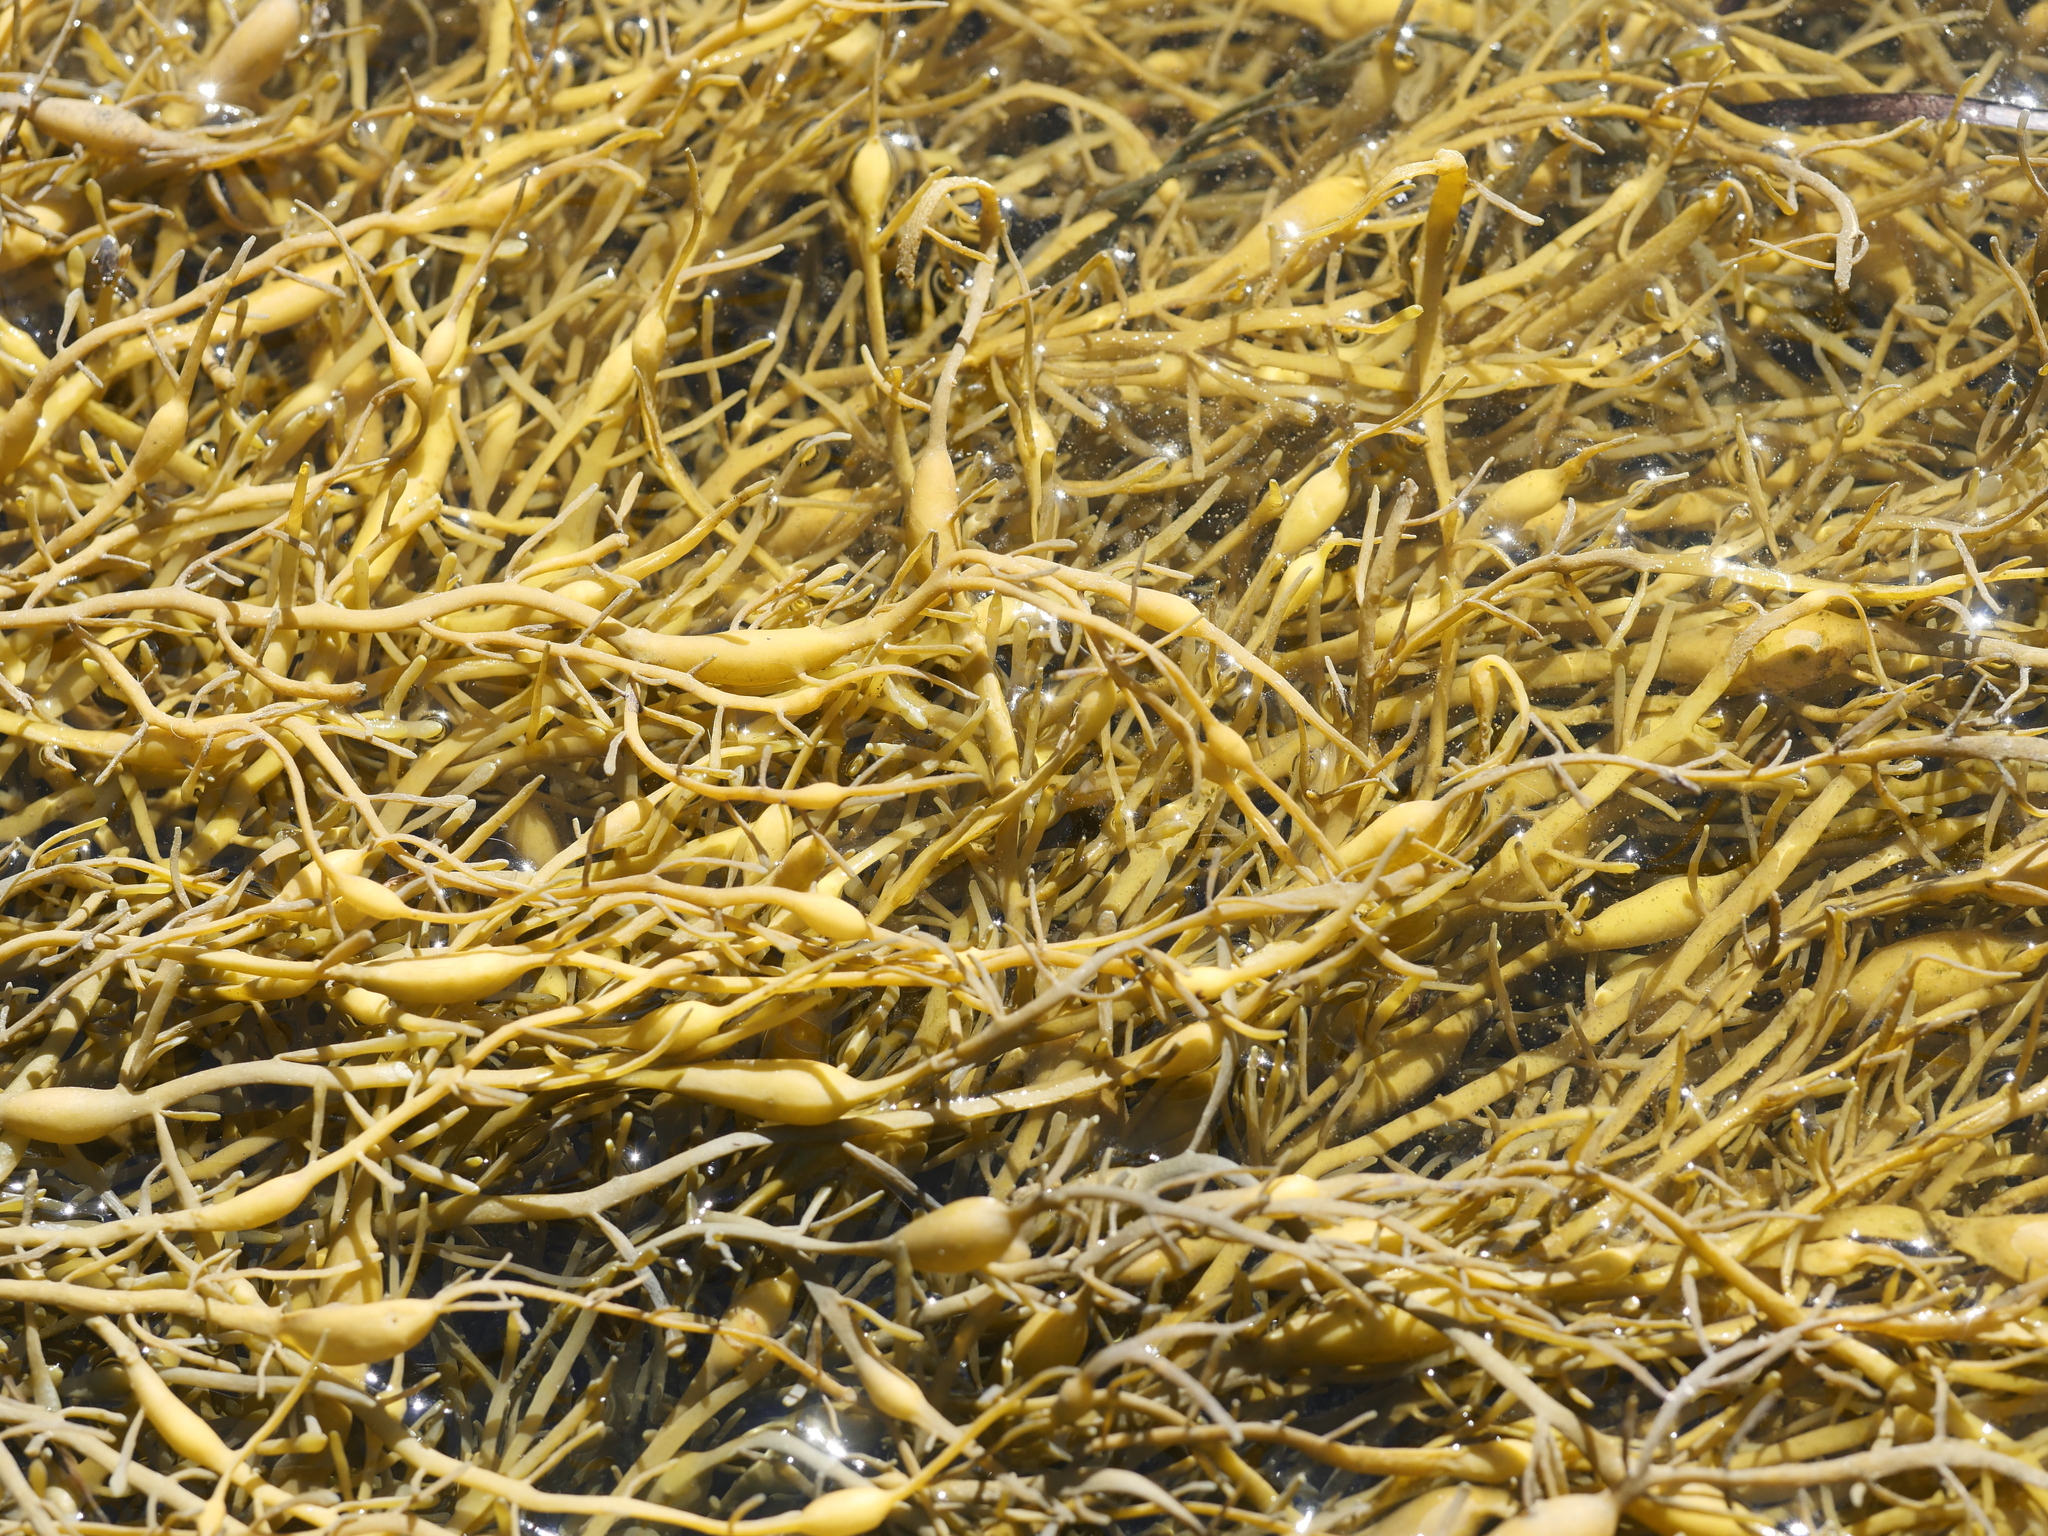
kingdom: Chromista
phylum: Ochrophyta
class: Phaeophyceae
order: Fucales
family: Fucaceae
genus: Ascophyllum
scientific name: Ascophyllum nodosum
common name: Knotted wrack
